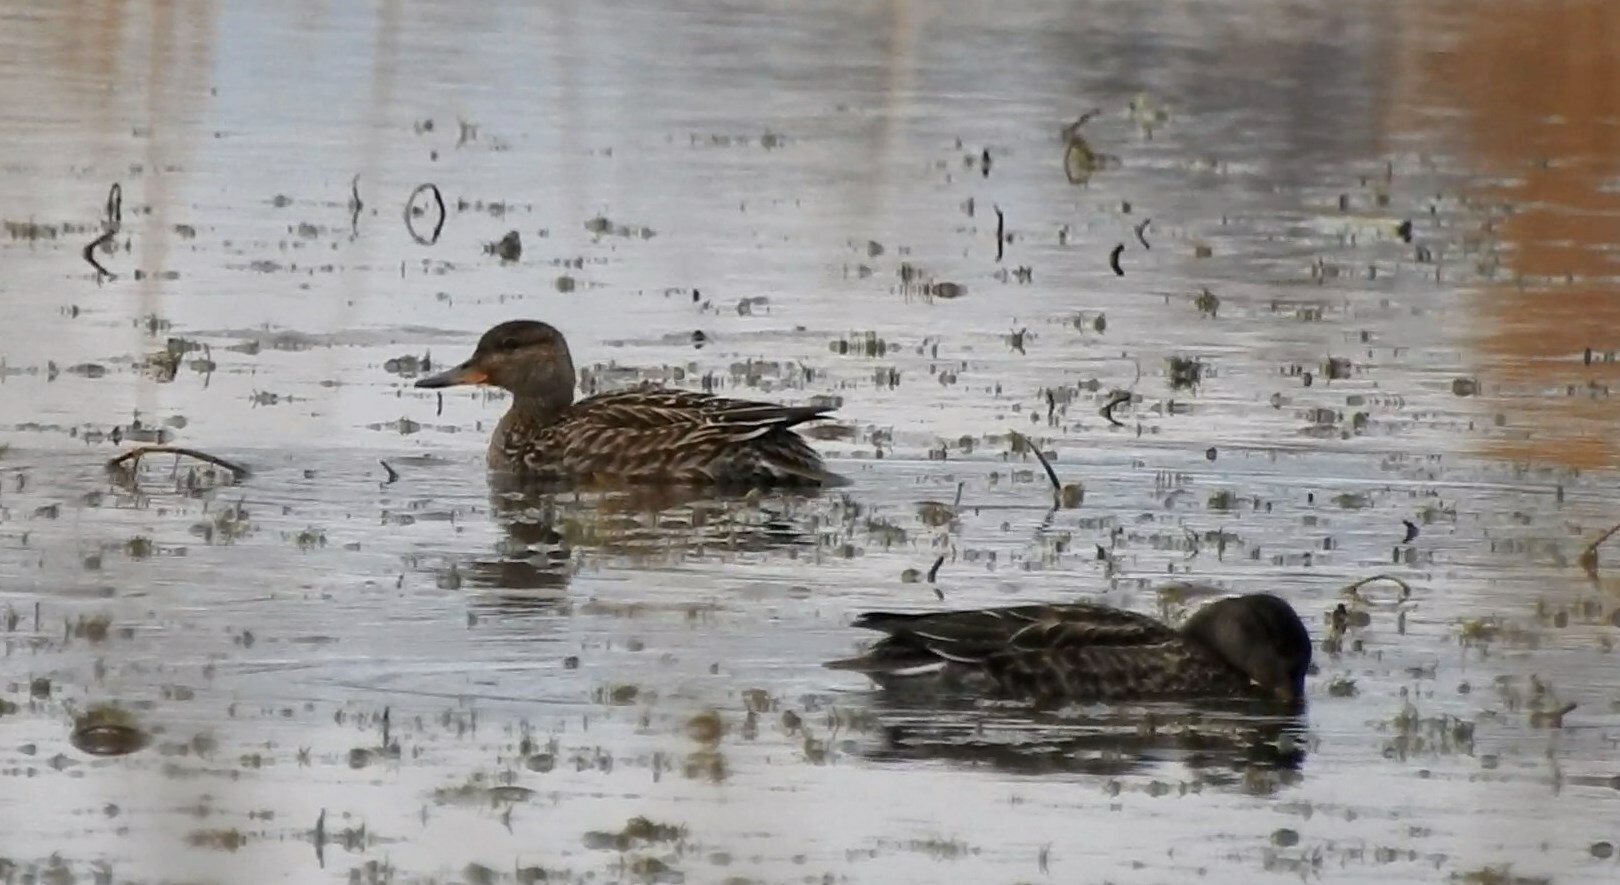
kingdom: Animalia
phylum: Chordata
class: Aves
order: Anseriformes
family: Anatidae
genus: Anas
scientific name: Anas crecca
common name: Eurasian teal
